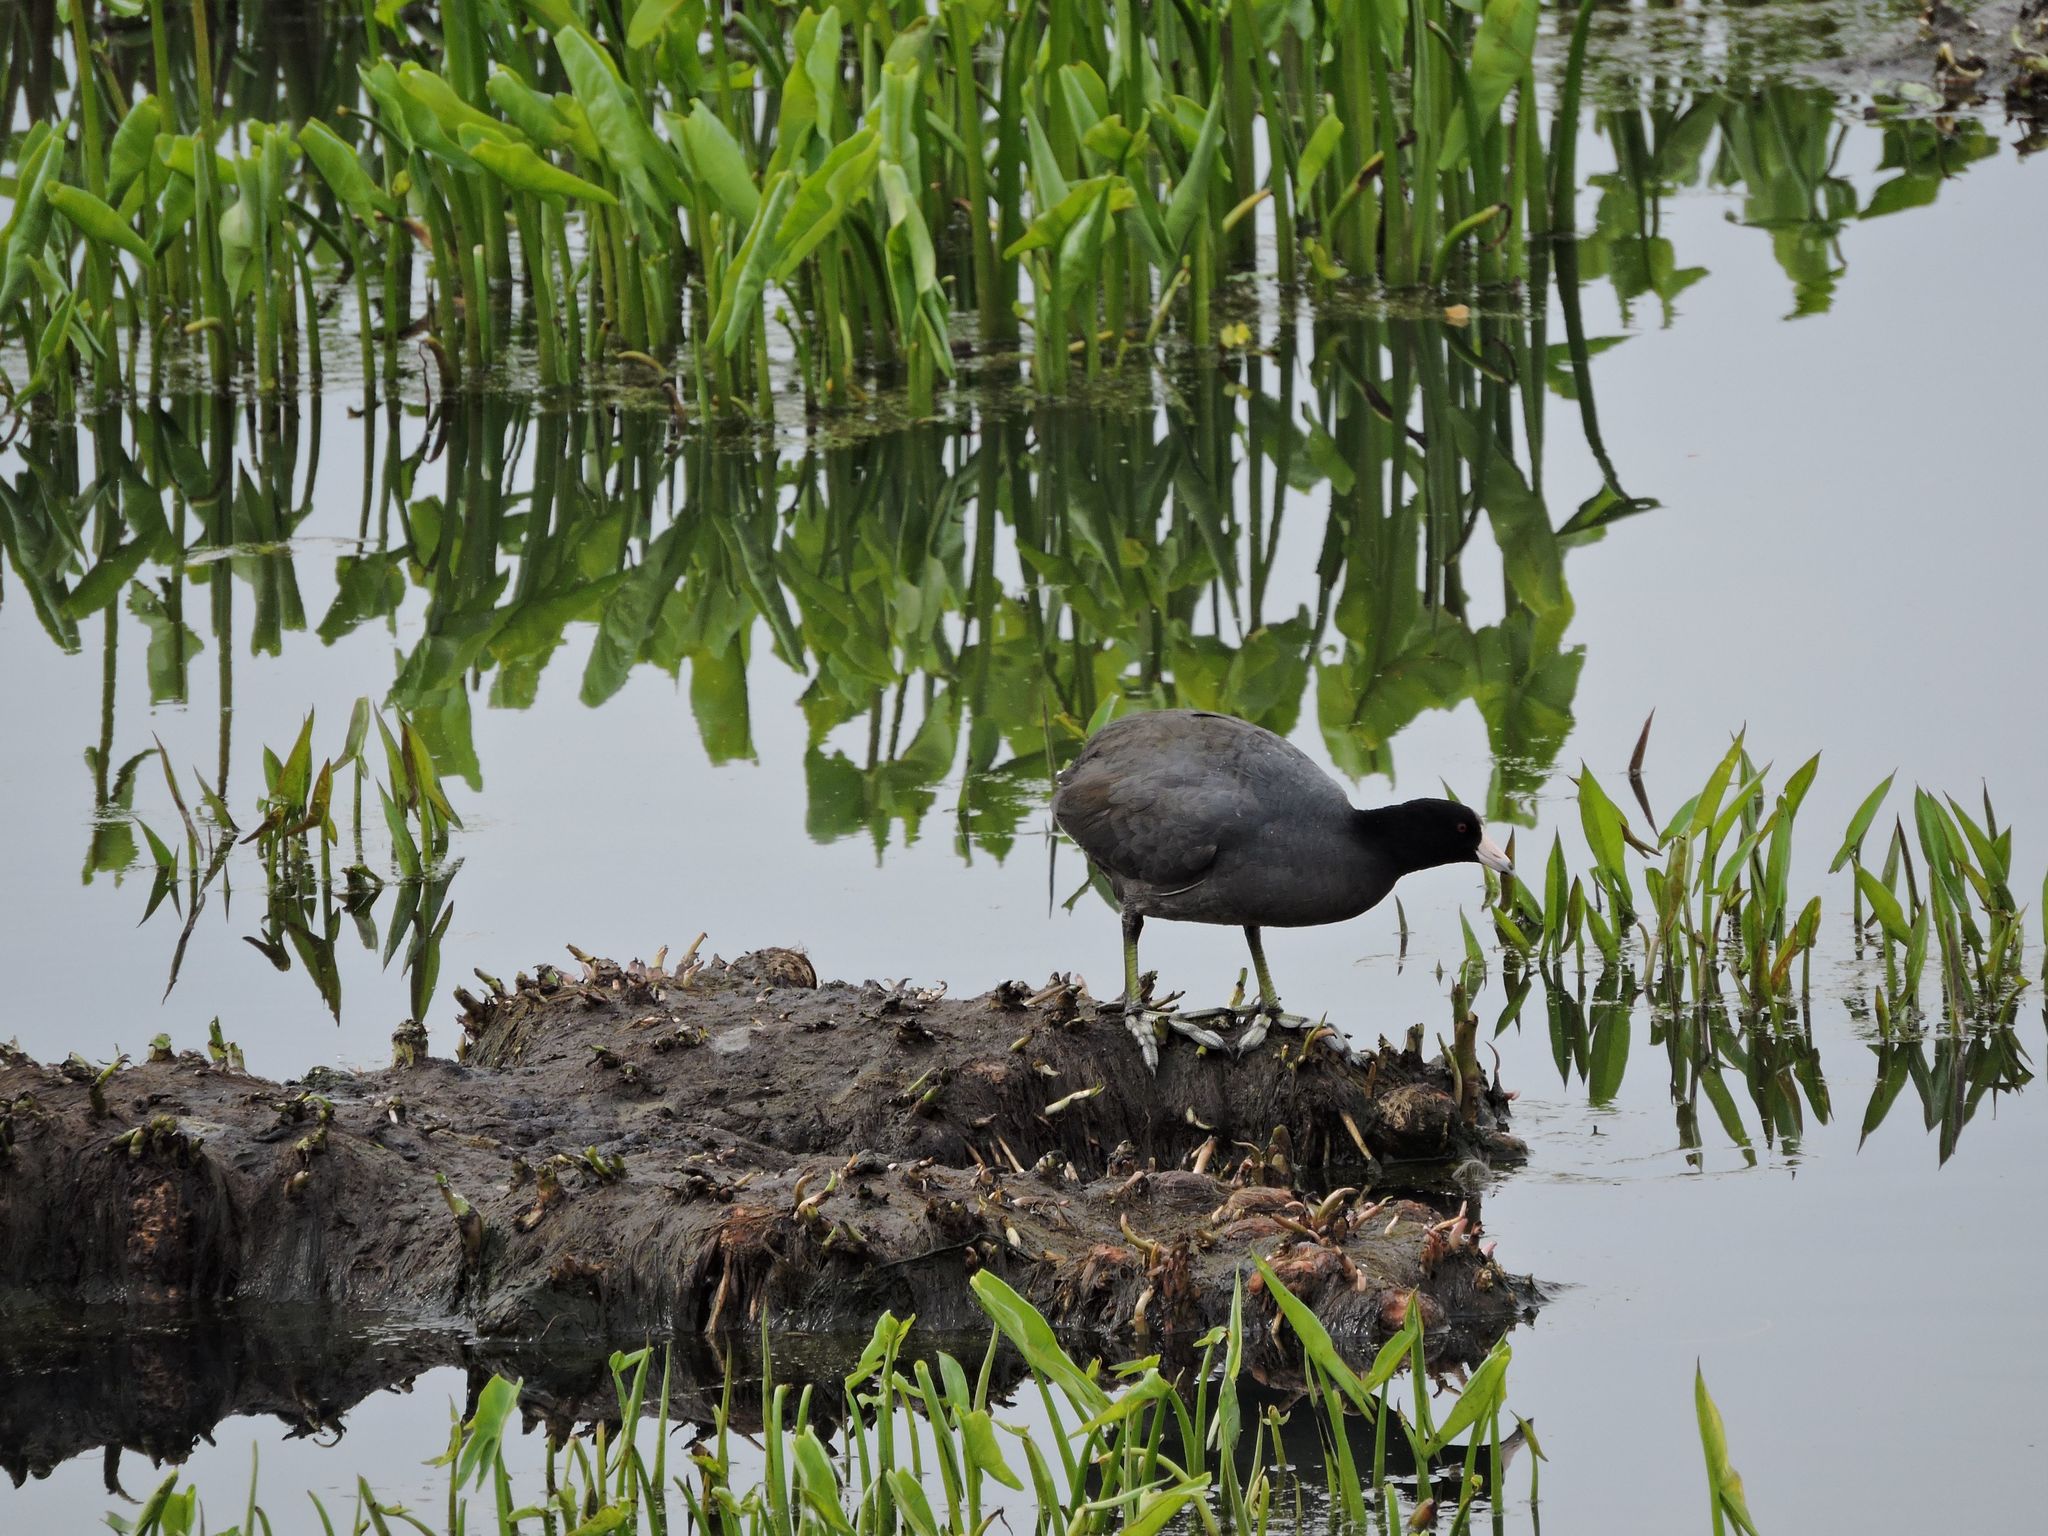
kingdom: Animalia
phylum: Chordata
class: Aves
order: Gruiformes
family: Rallidae
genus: Fulica
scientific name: Fulica americana
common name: American coot
